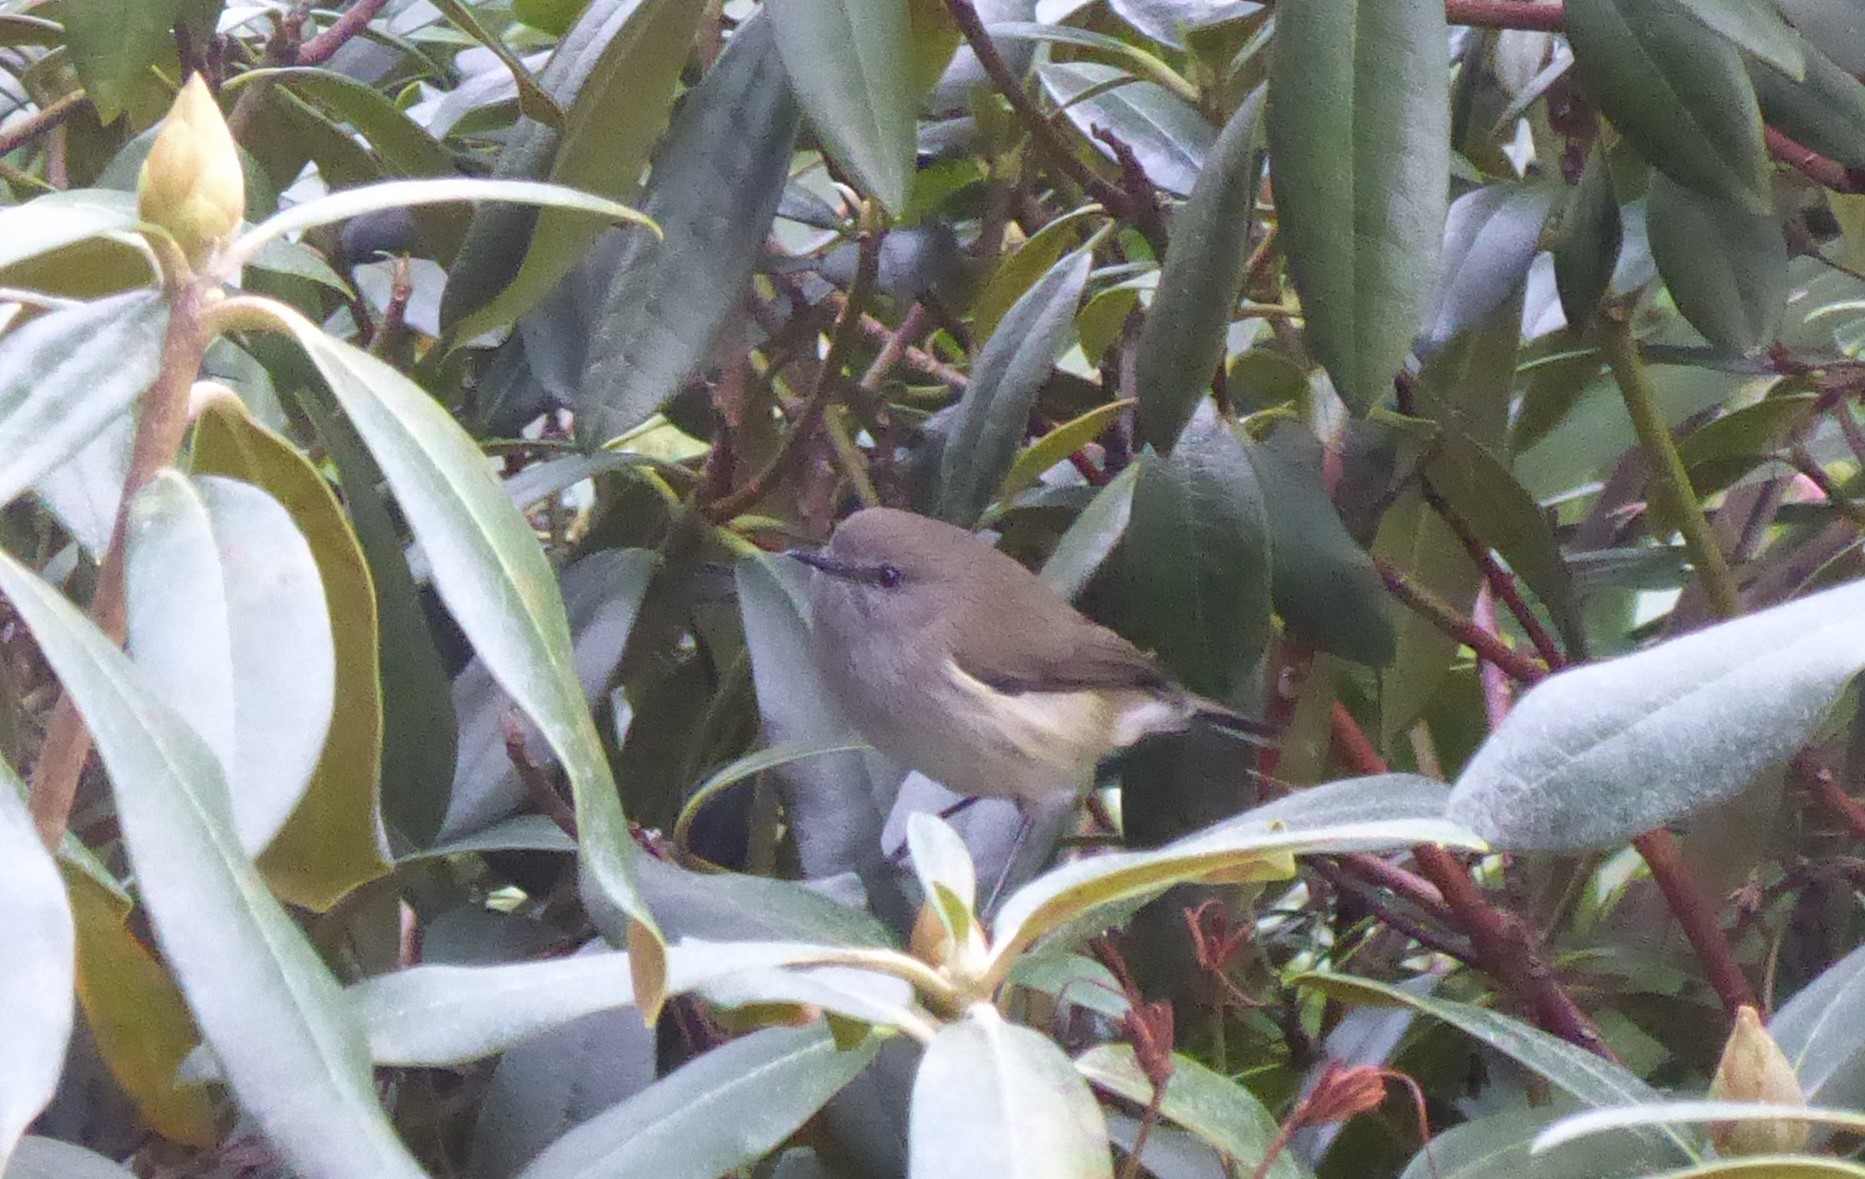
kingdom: Animalia
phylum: Chordata
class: Aves
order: Passeriformes
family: Acanthizidae
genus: Gerygone
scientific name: Gerygone igata
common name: Grey gerygone
